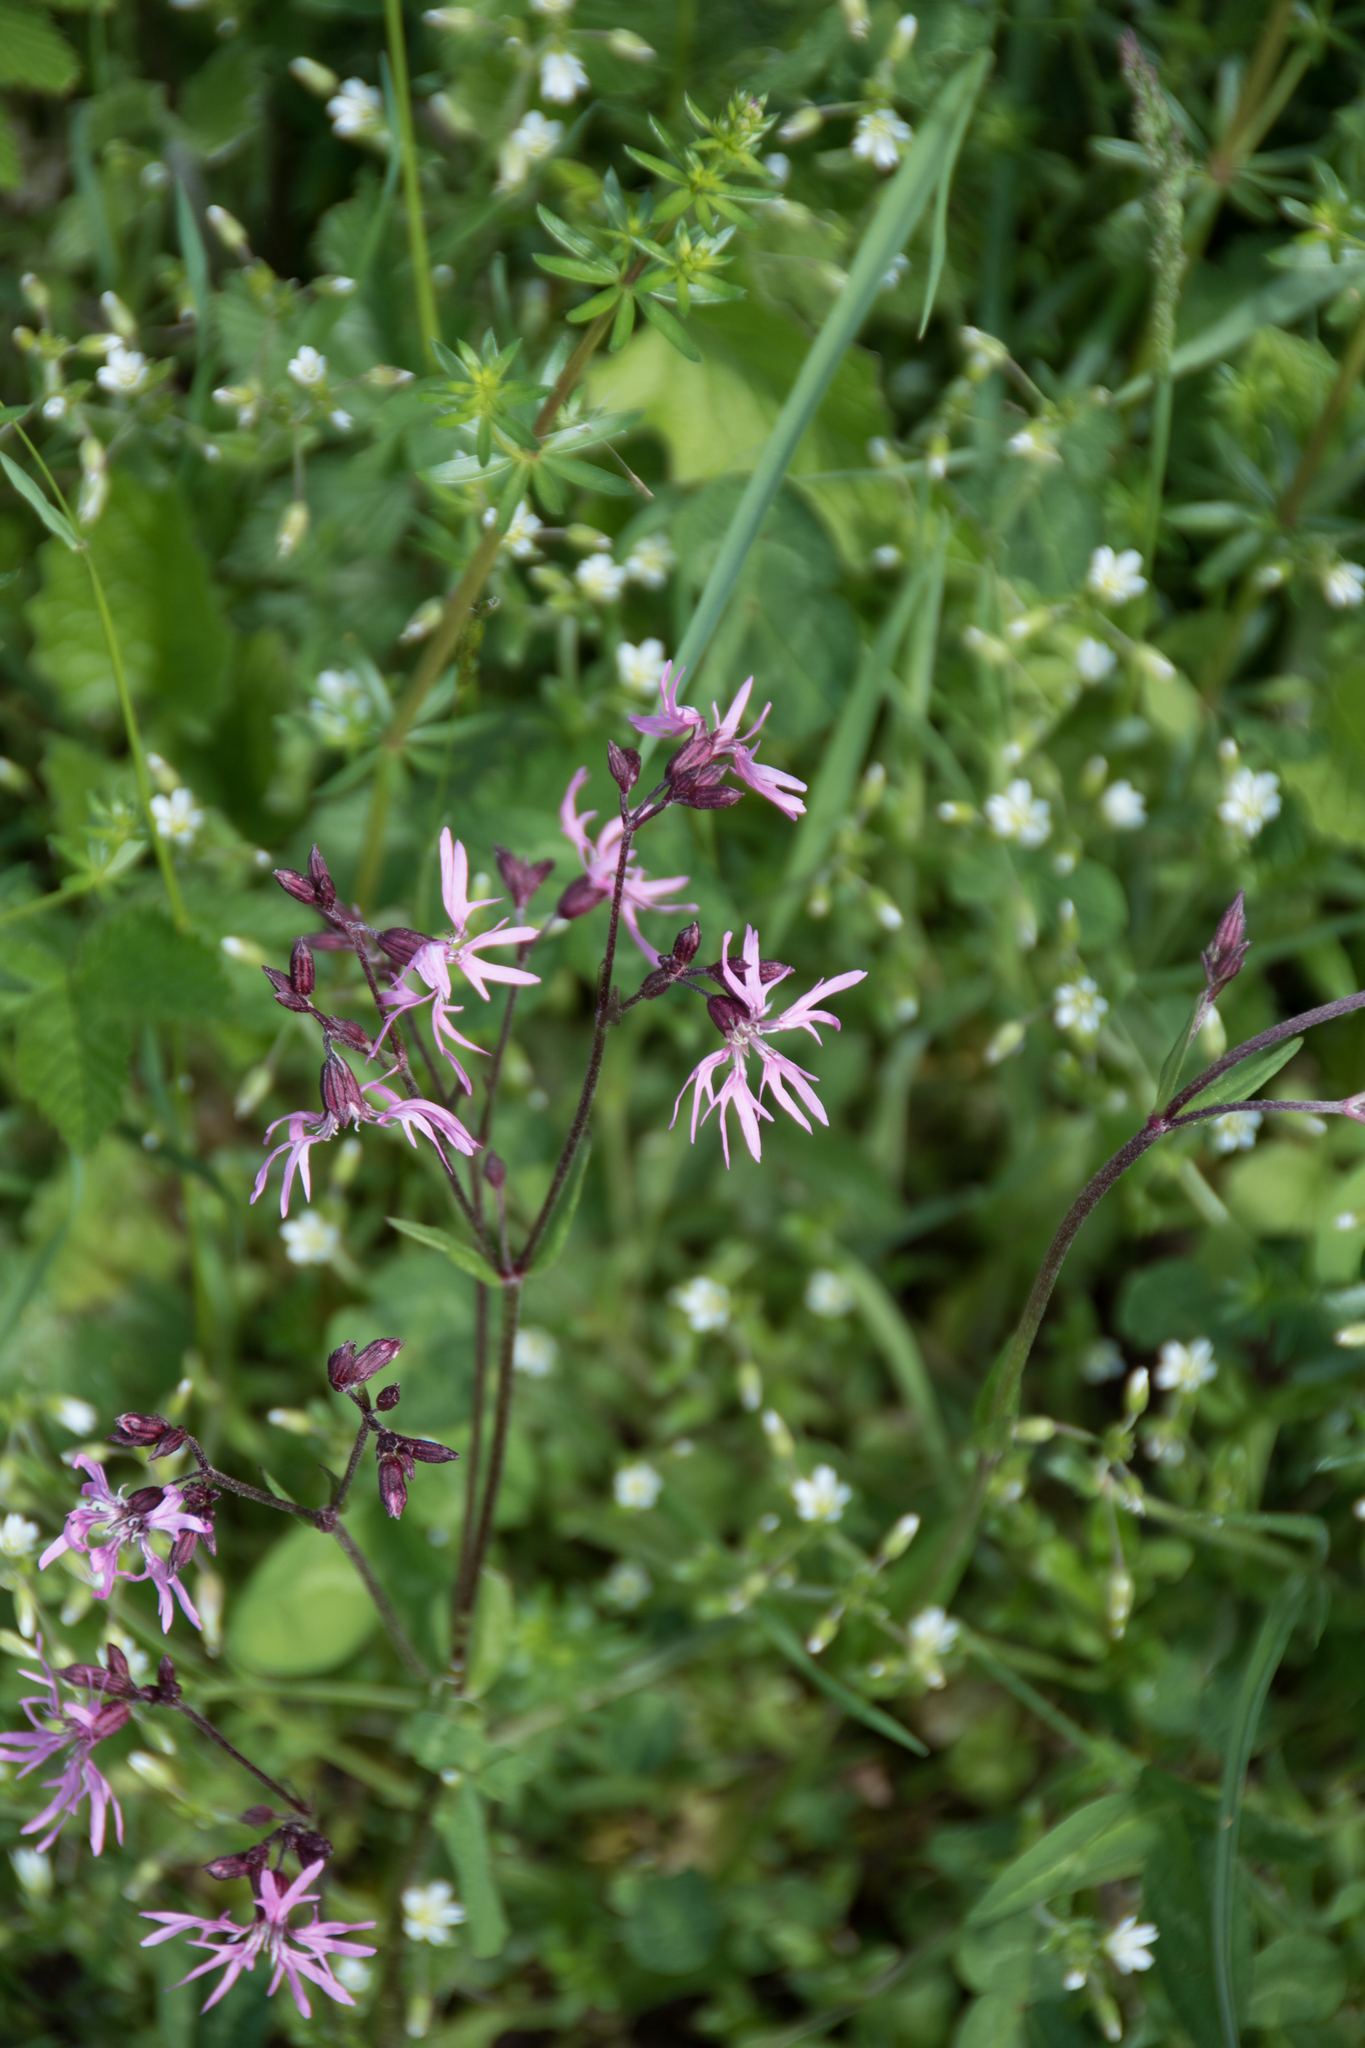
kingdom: Plantae
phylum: Tracheophyta
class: Magnoliopsida
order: Caryophyllales
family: Caryophyllaceae
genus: Silene
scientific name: Silene flos-cuculi
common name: Ragged-robin
